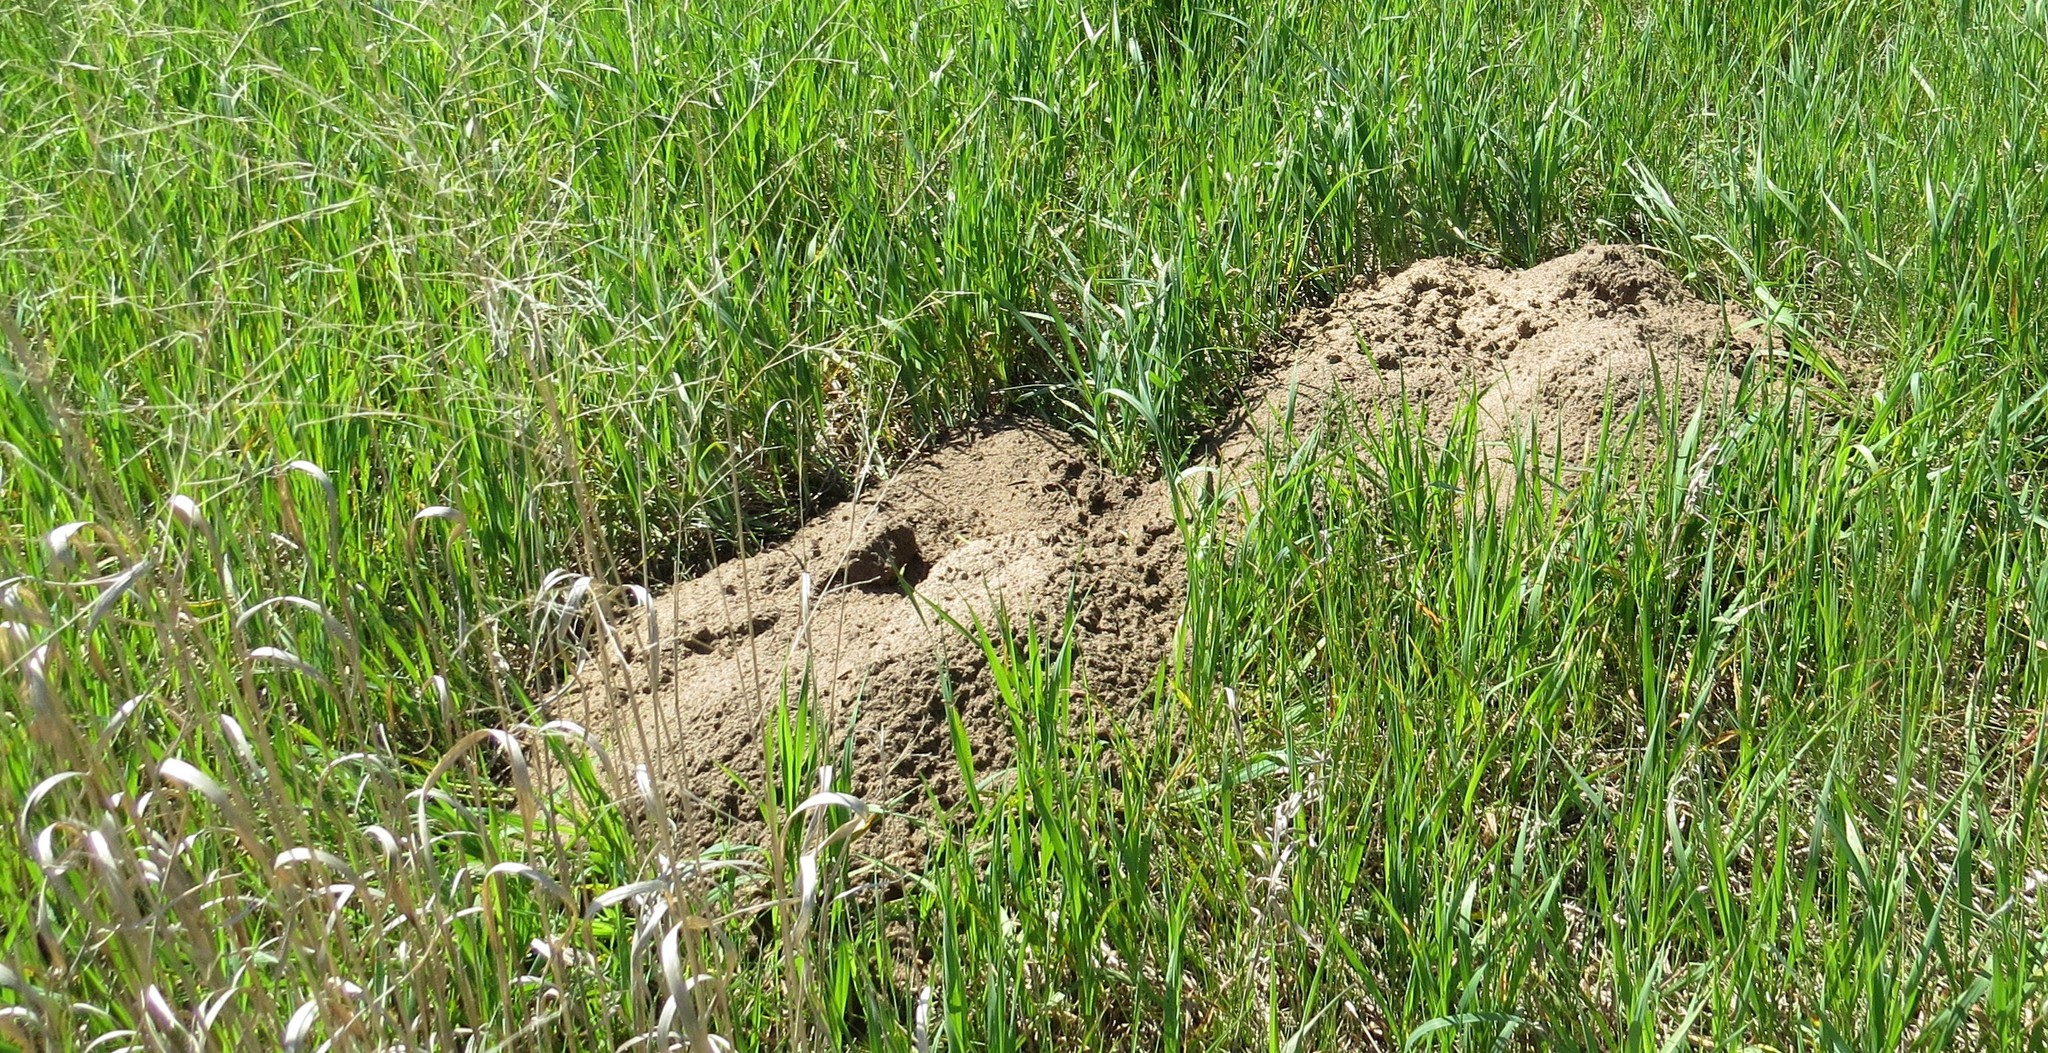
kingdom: Animalia
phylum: Chordata
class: Mammalia
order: Rodentia
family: Geomyidae
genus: Geomys
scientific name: Geomys bursarius
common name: Plains pocket gopher
